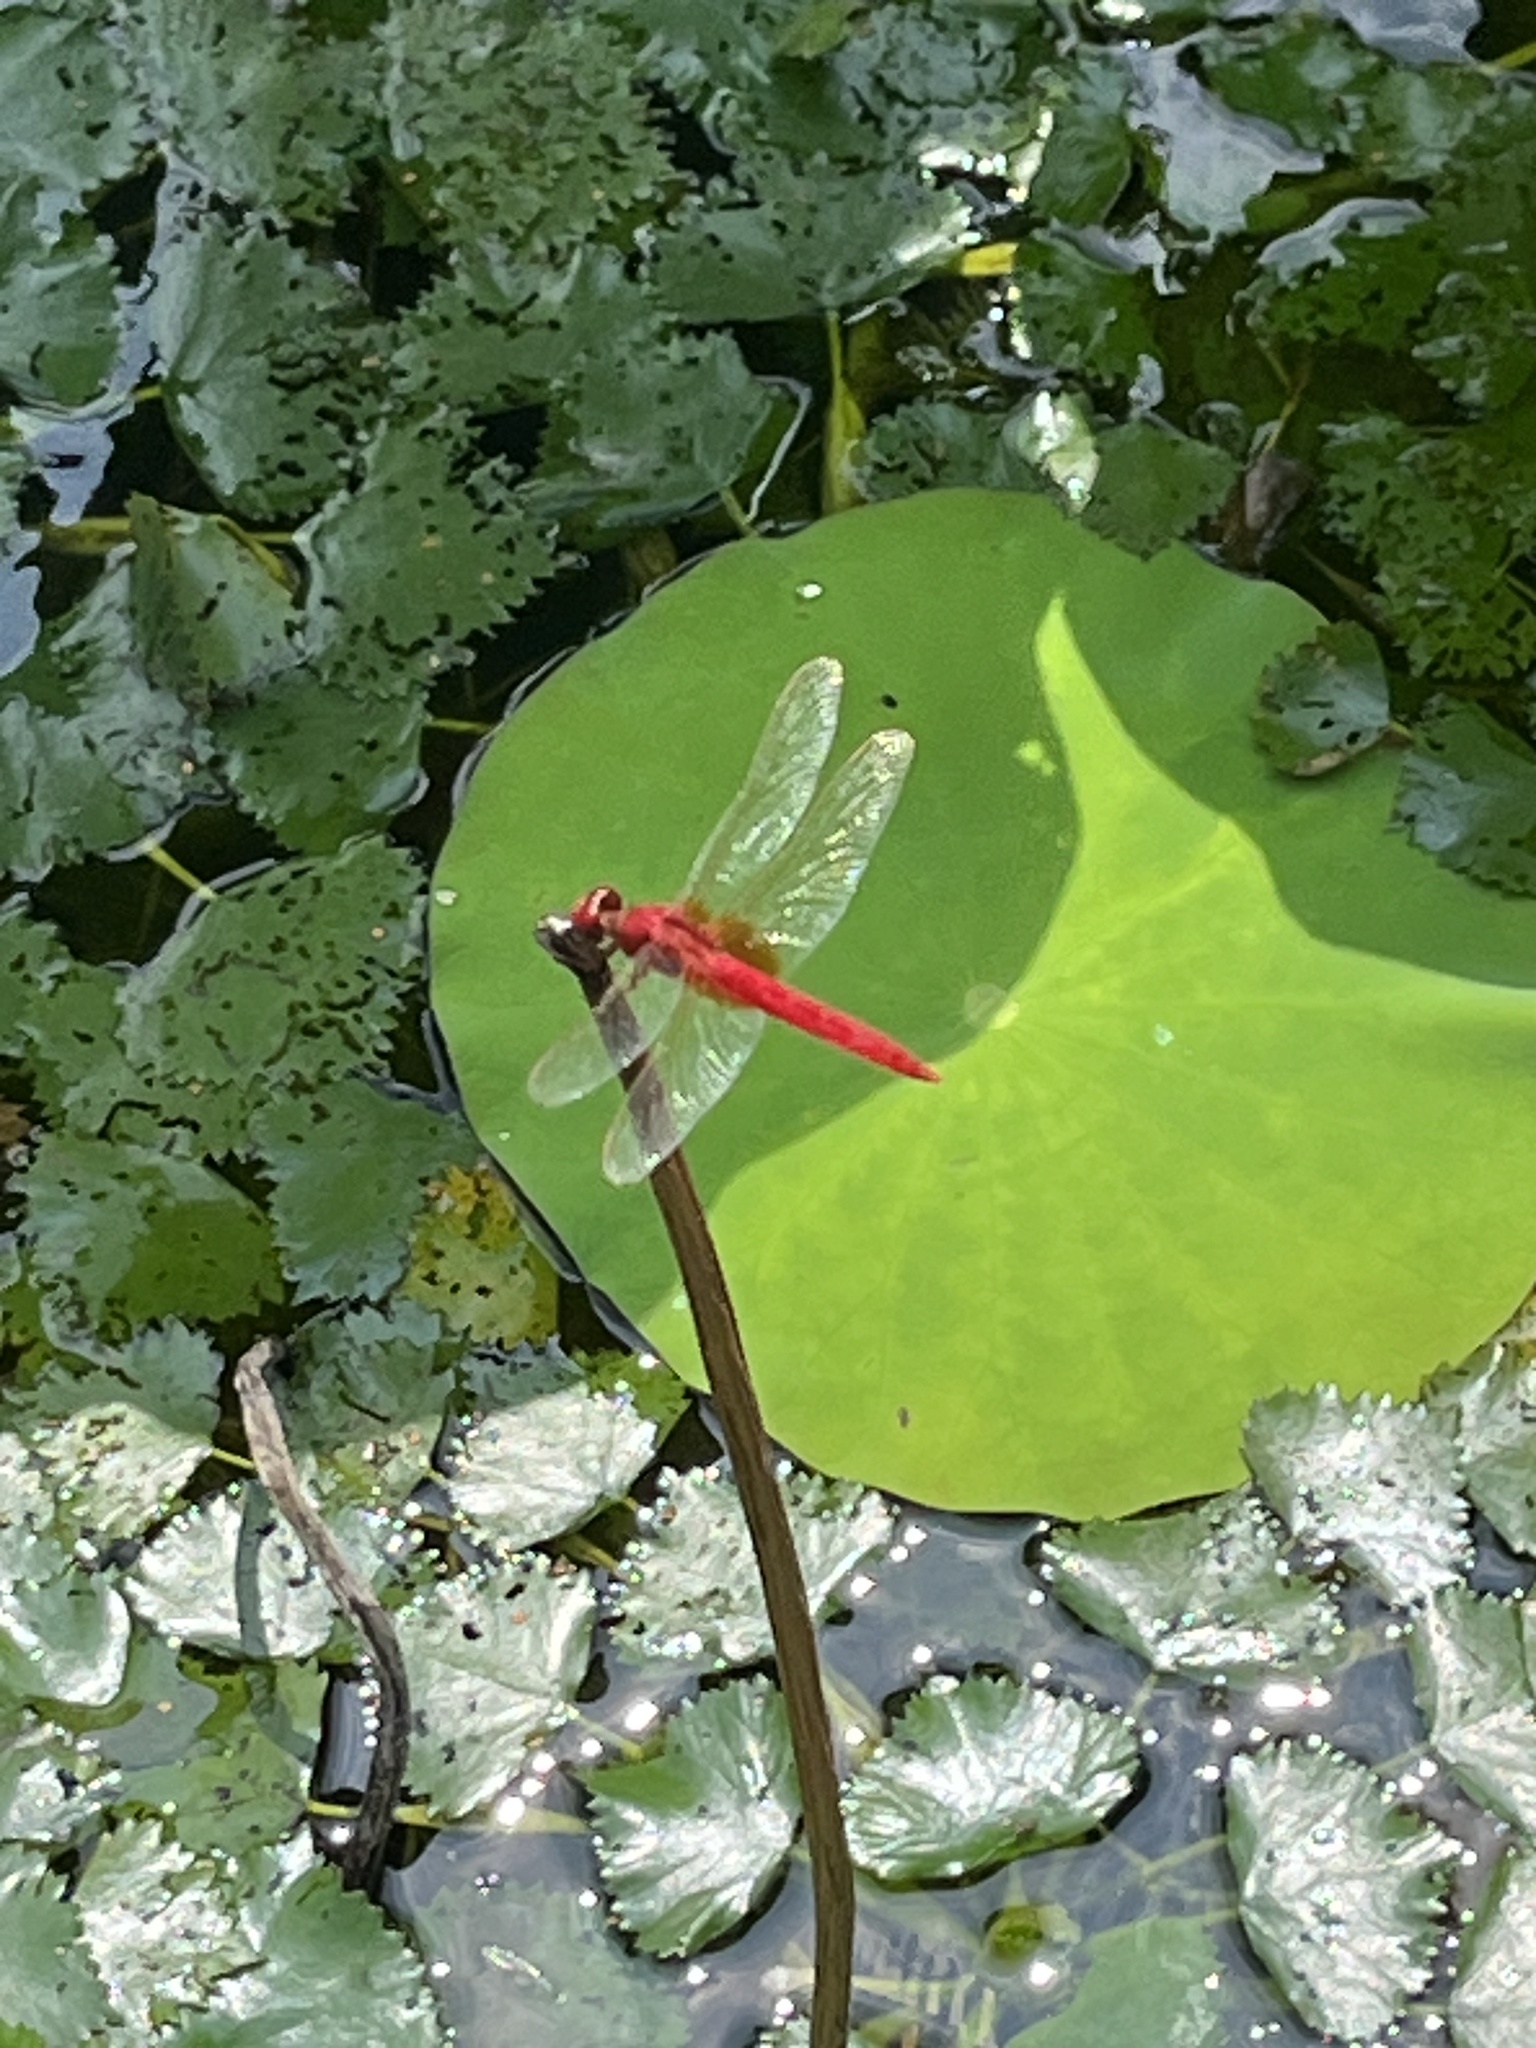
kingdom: Animalia
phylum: Arthropoda
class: Insecta
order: Odonata
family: Libellulidae
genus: Crocothemis
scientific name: Crocothemis servilia
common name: Scarlet skimmer
